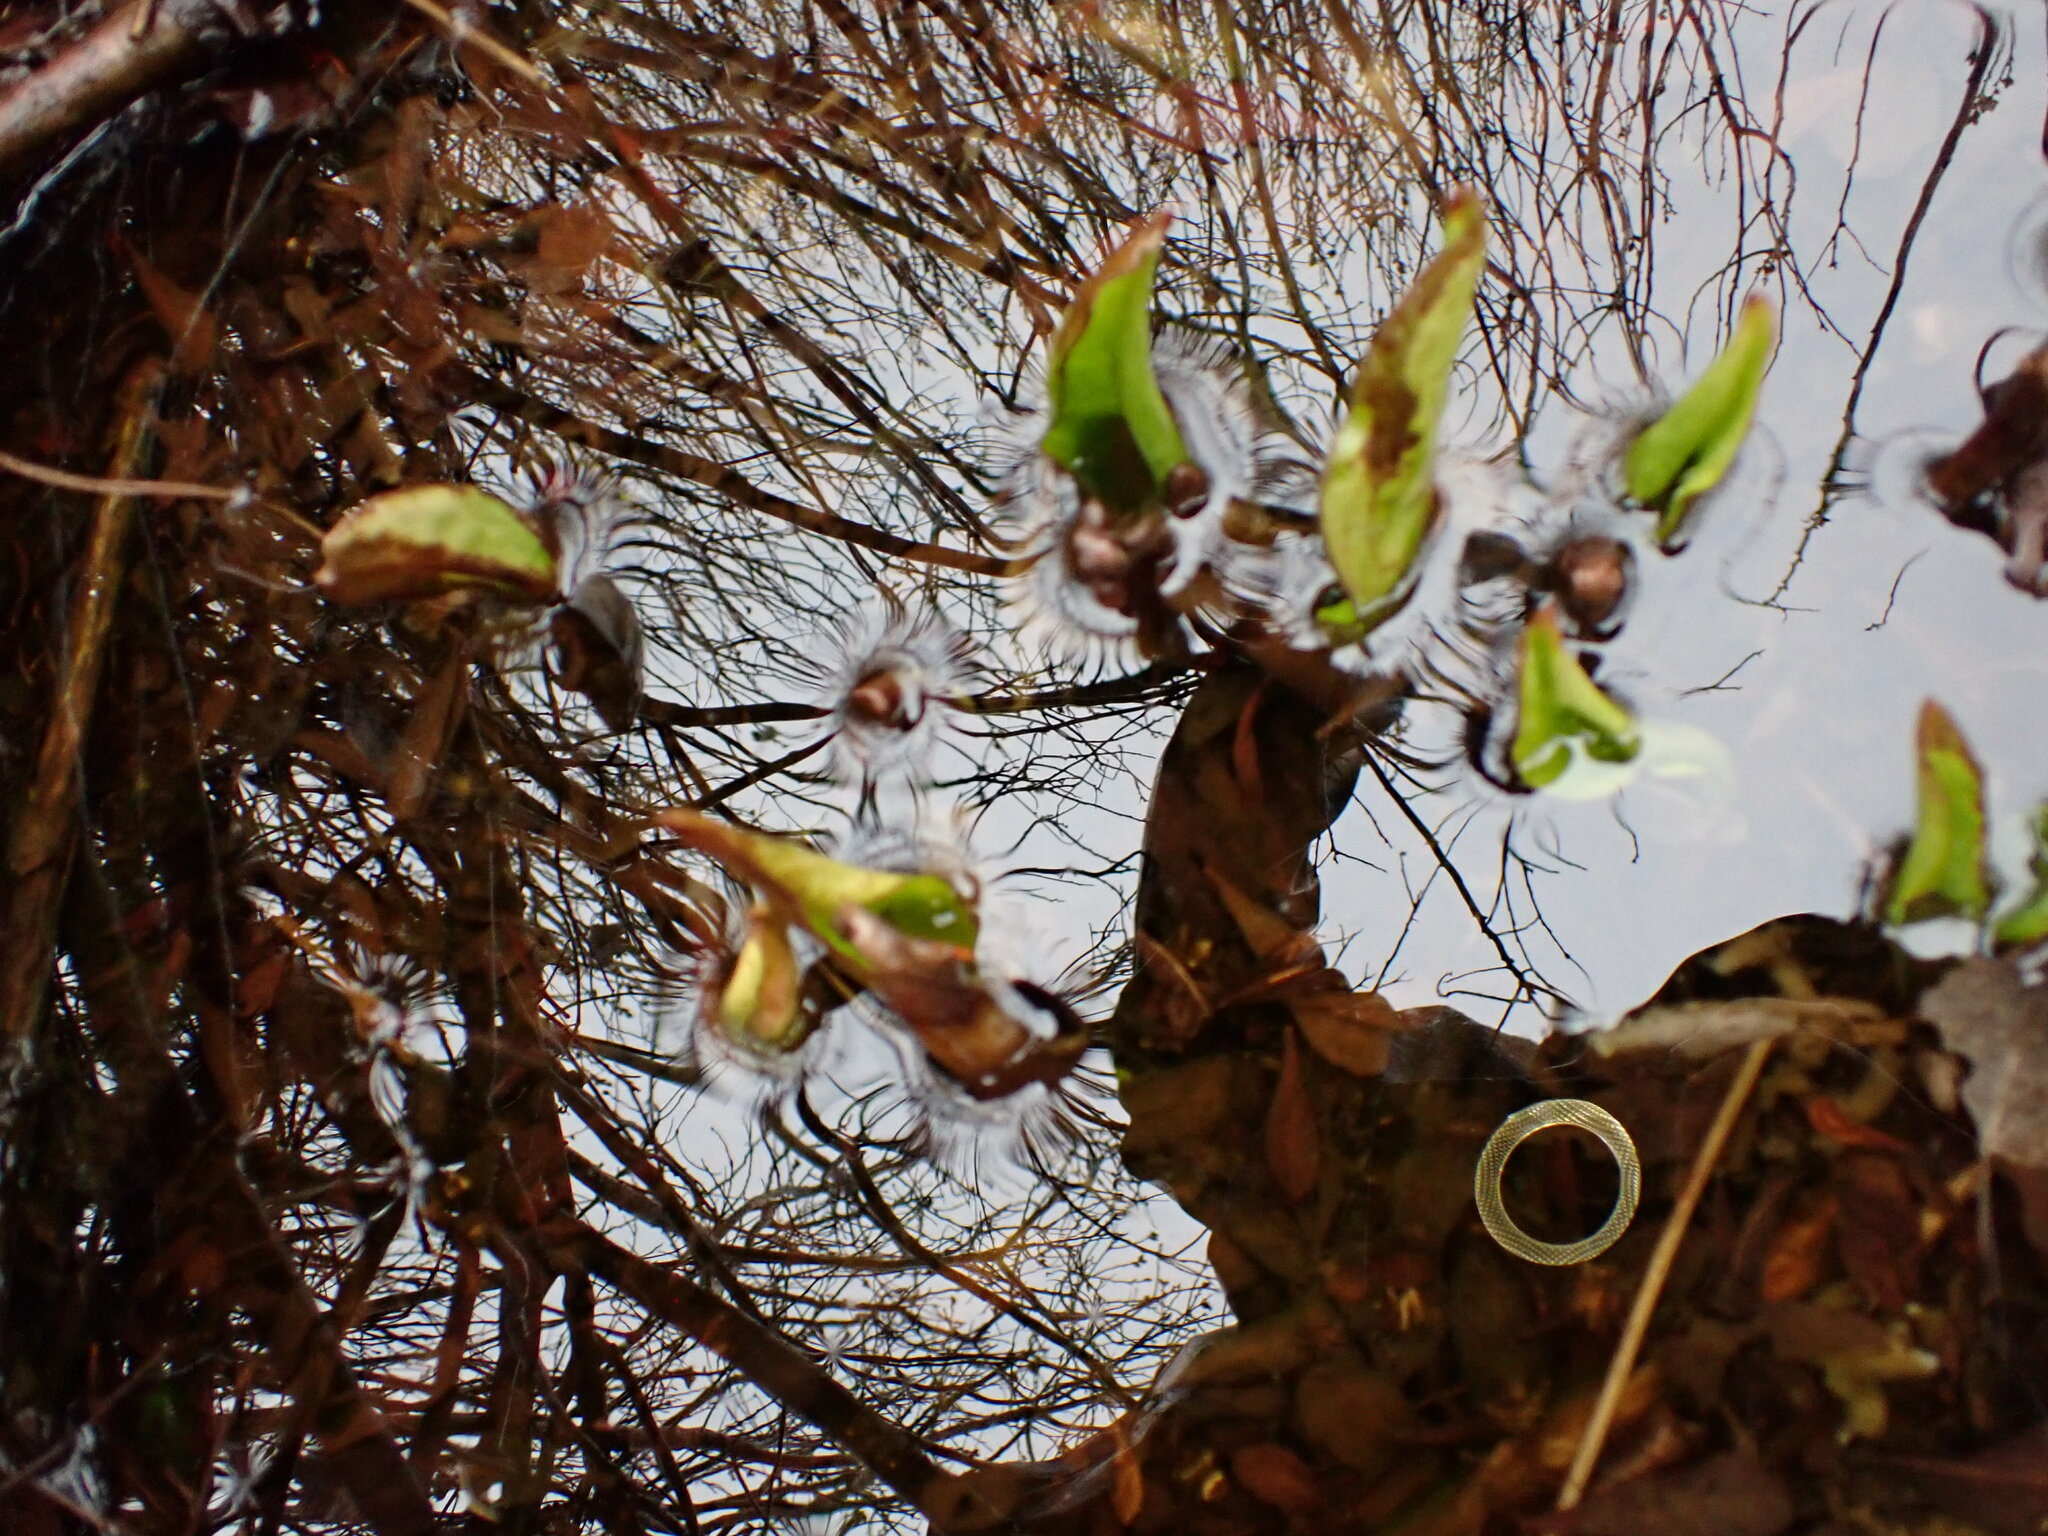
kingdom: Plantae
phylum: Tracheophyta
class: Liliopsida
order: Alismatales
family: Araceae
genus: Lysichiton
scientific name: Lysichiton americanus
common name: American skunk cabbage
